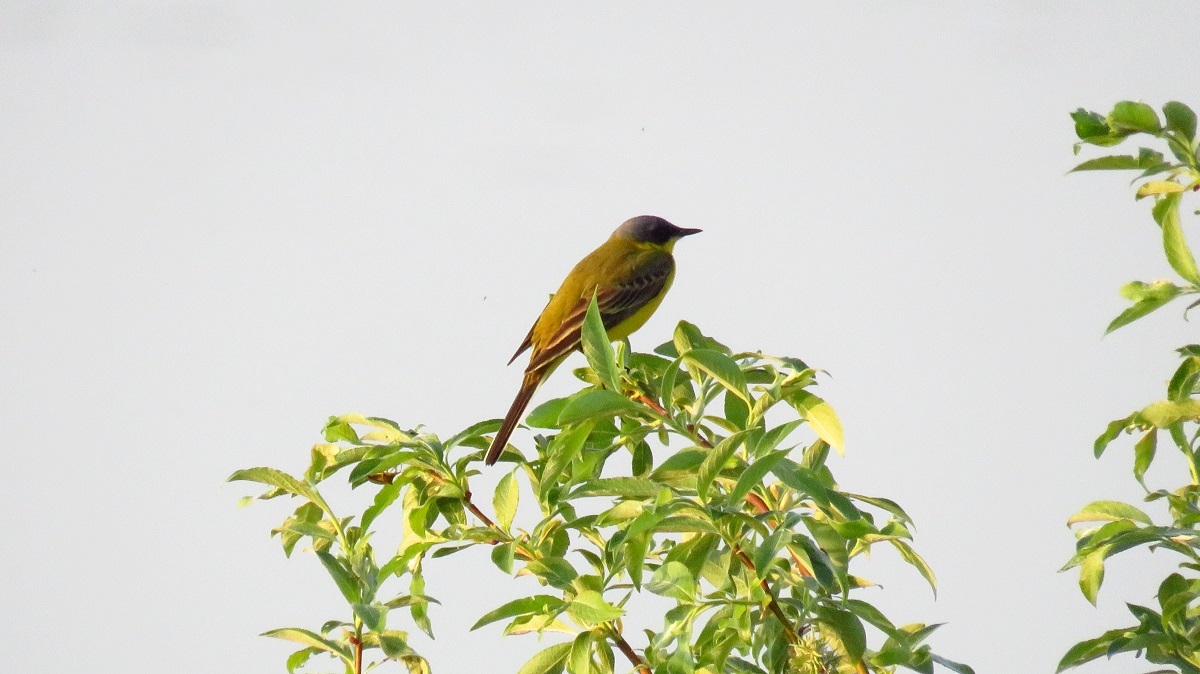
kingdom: Animalia
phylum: Chordata
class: Aves
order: Passeriformes
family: Motacillidae
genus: Motacilla
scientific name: Motacilla flava
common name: Western yellow wagtail
